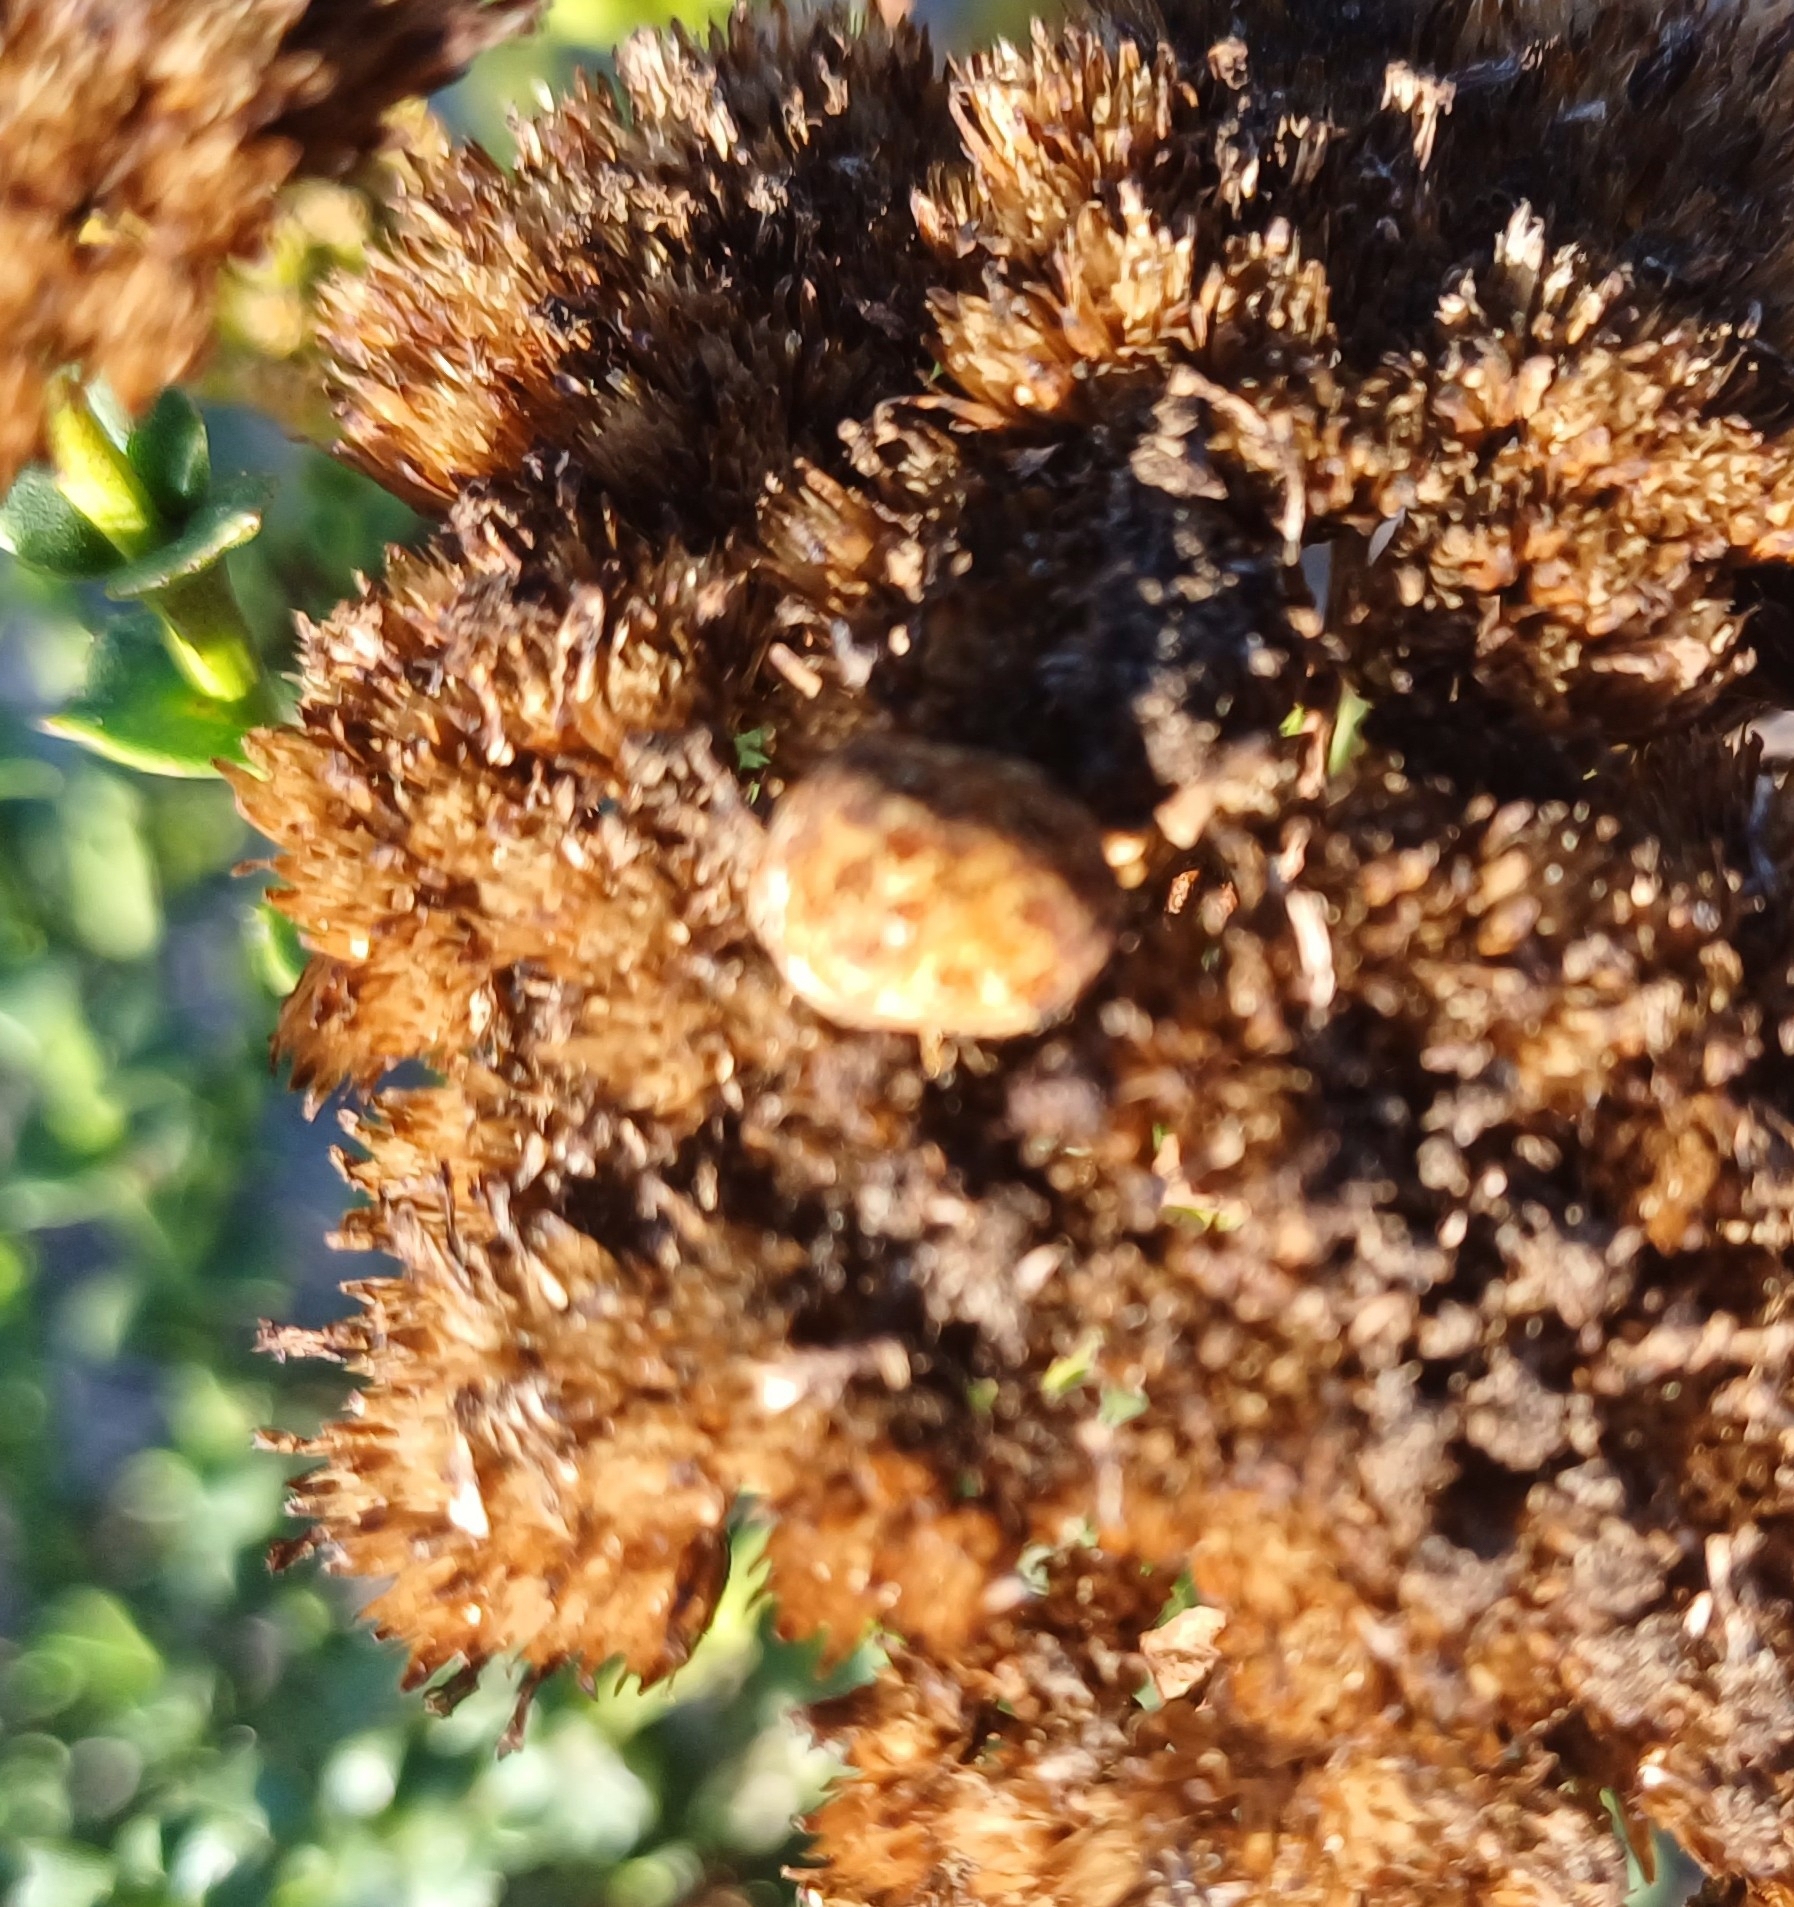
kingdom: Animalia
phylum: Arthropoda
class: Insecta
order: Hemiptera
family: Scutelleridae
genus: Sphaerocoris
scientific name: Sphaerocoris
